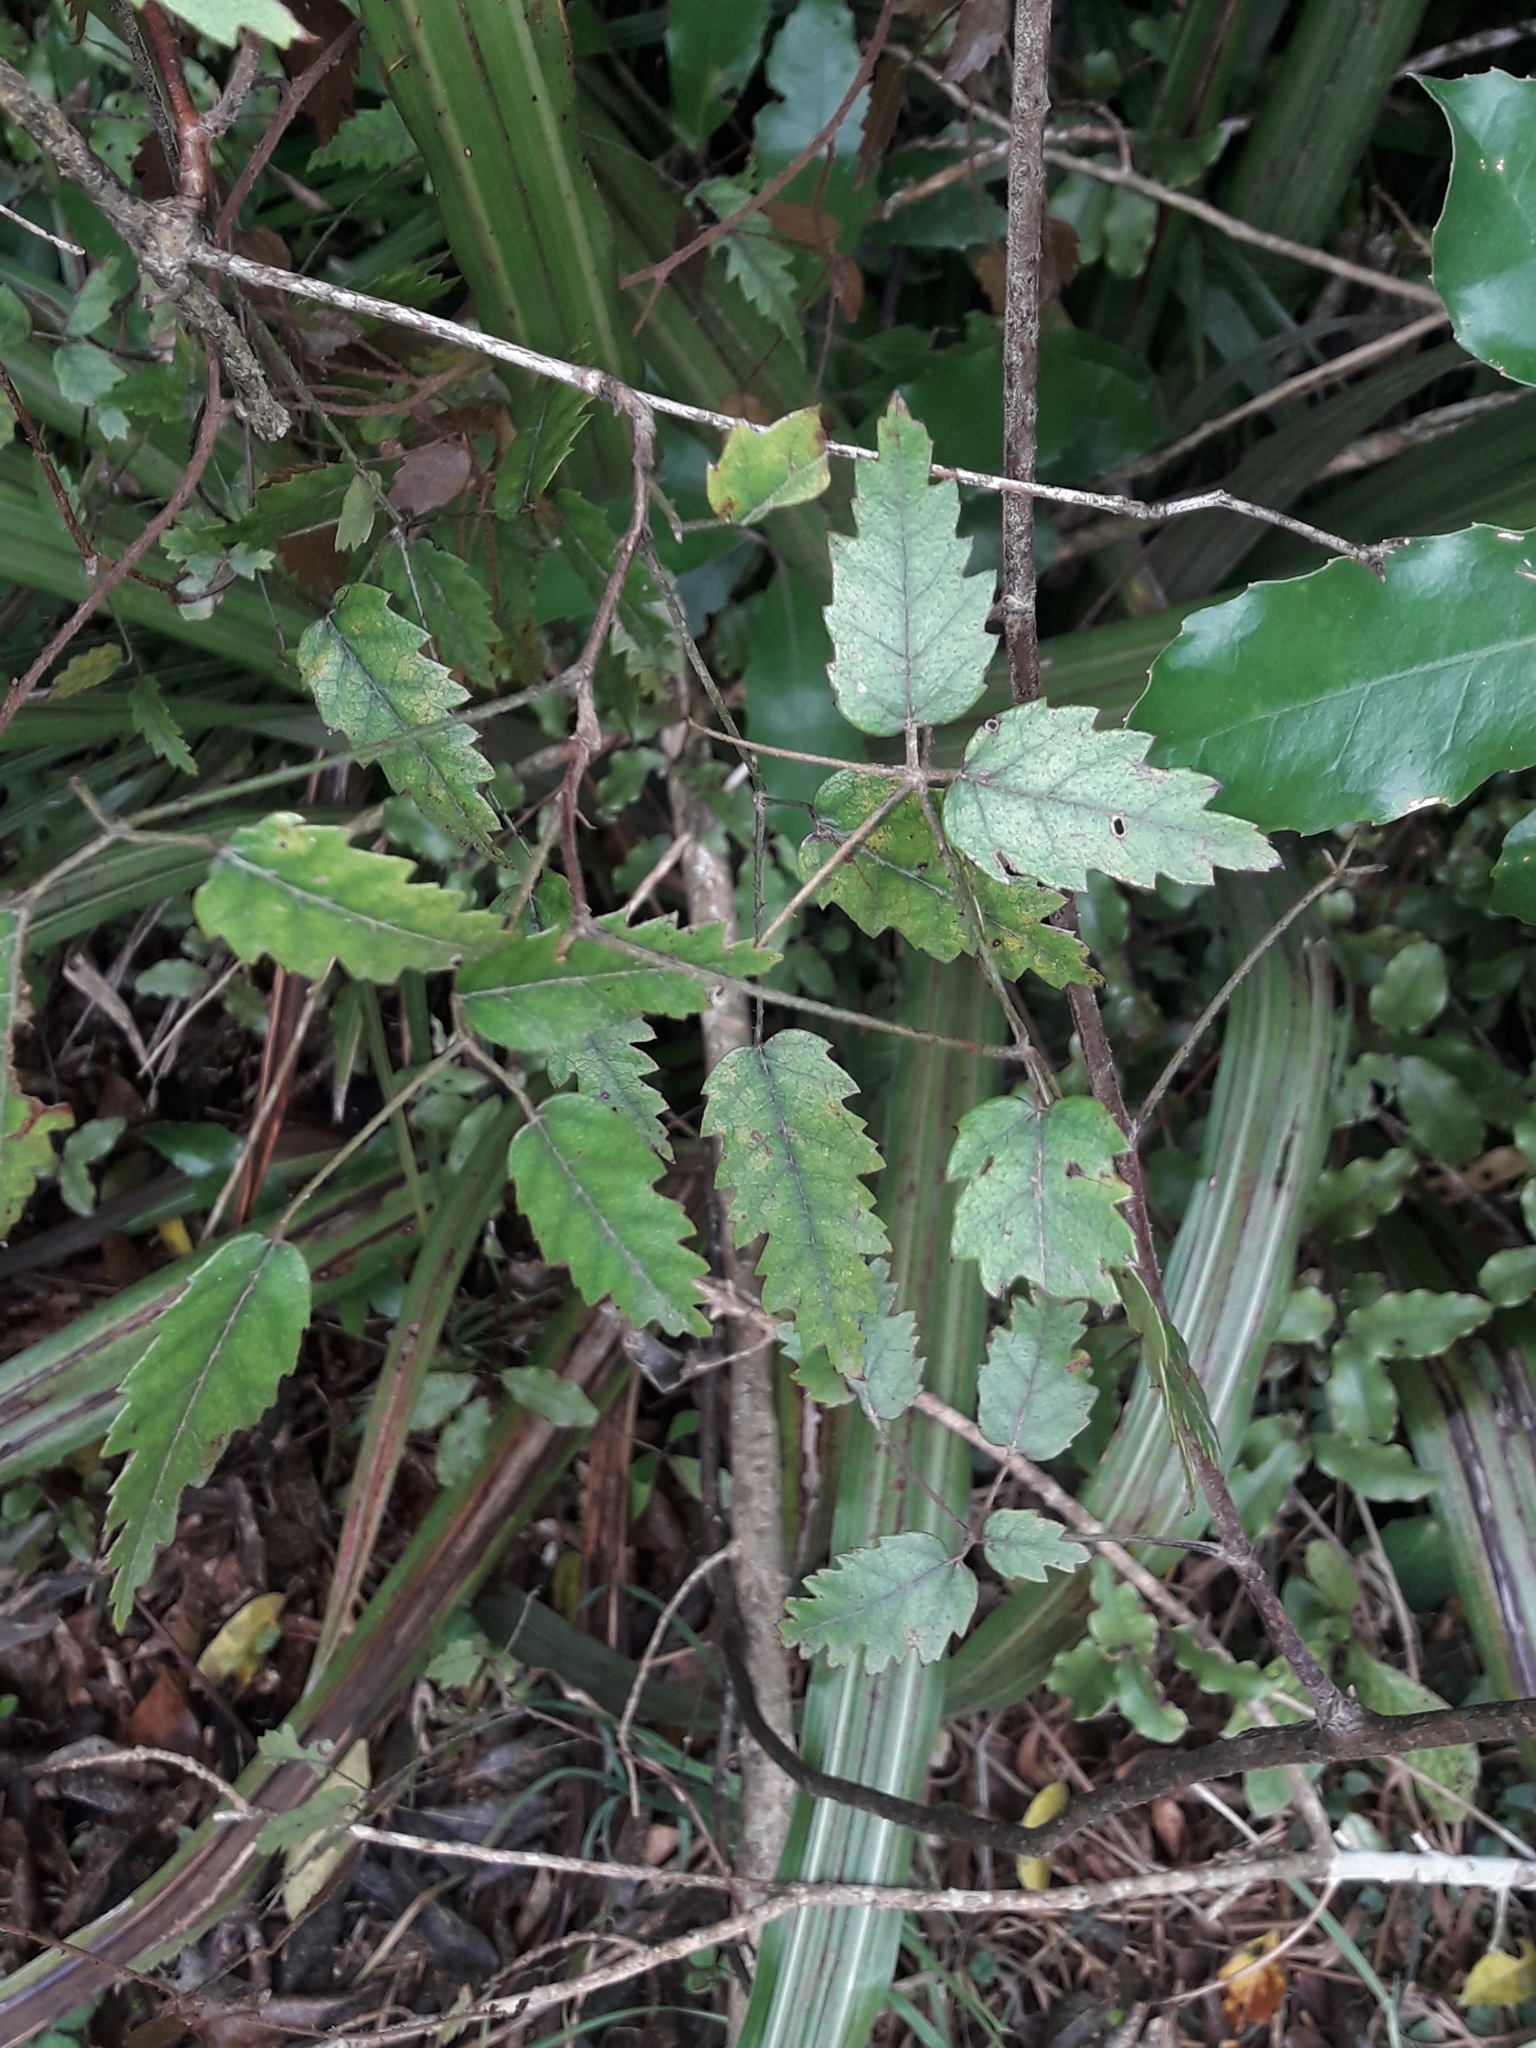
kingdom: Plantae
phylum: Tracheophyta
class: Magnoliopsida
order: Rosales
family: Rosaceae
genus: Rubus
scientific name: Rubus schmidelioides
